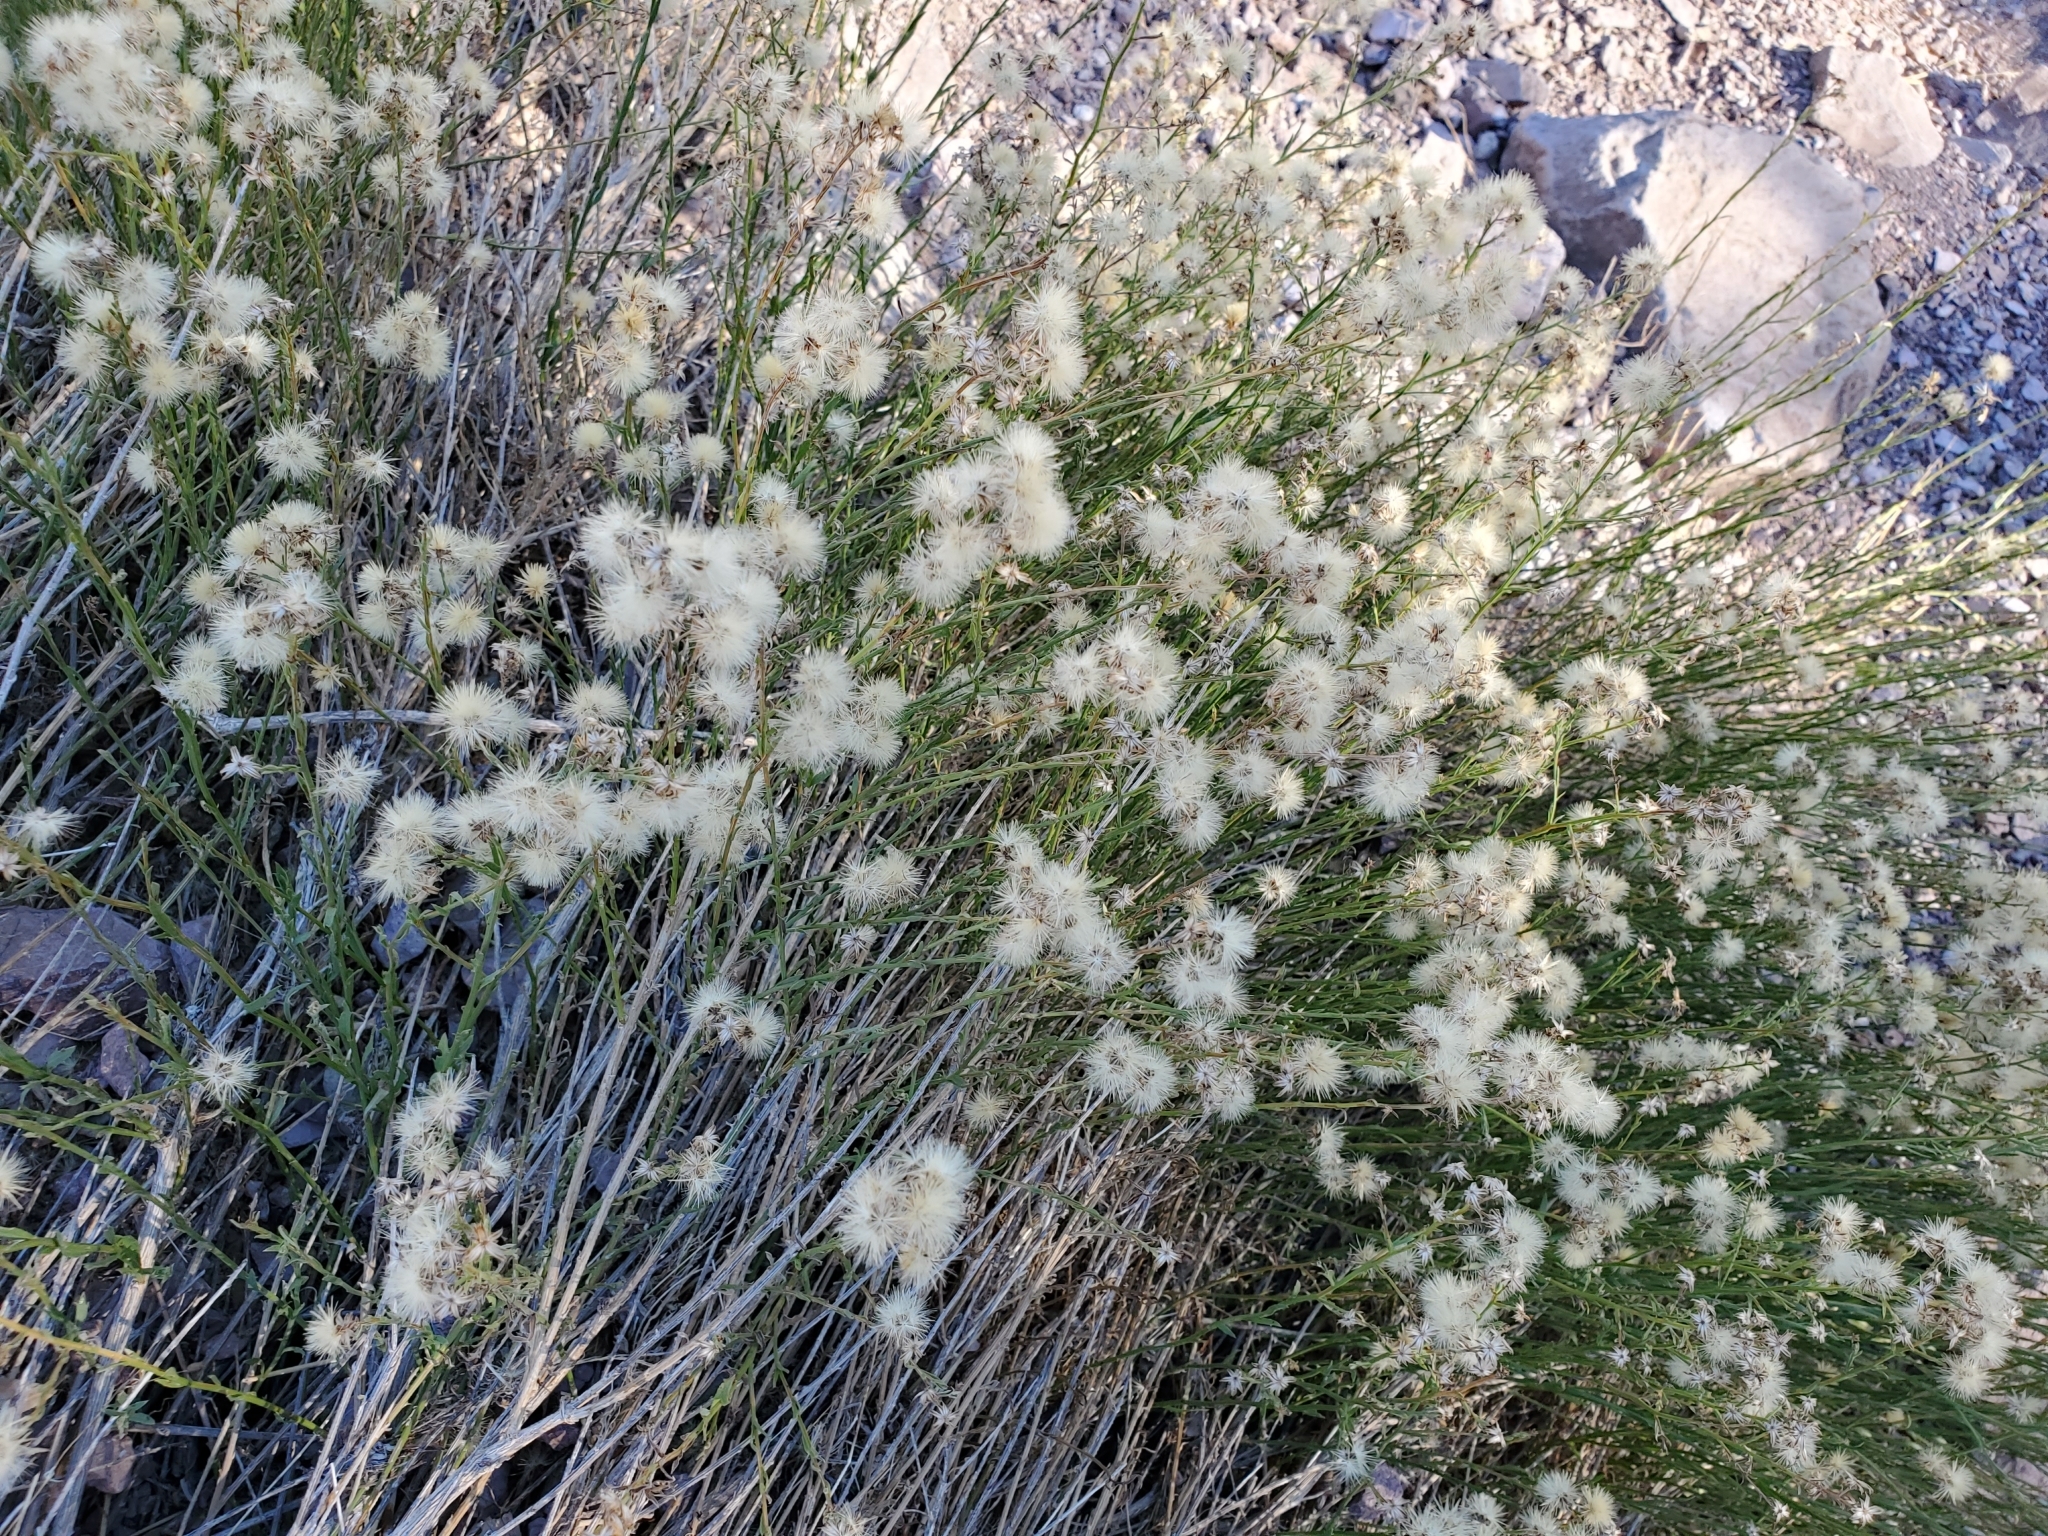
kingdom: Plantae
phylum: Tracheophyta
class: Magnoliopsida
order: Asterales
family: Asteraceae
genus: Baccharis
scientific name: Baccharis sarothroides
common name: Desert-broom
